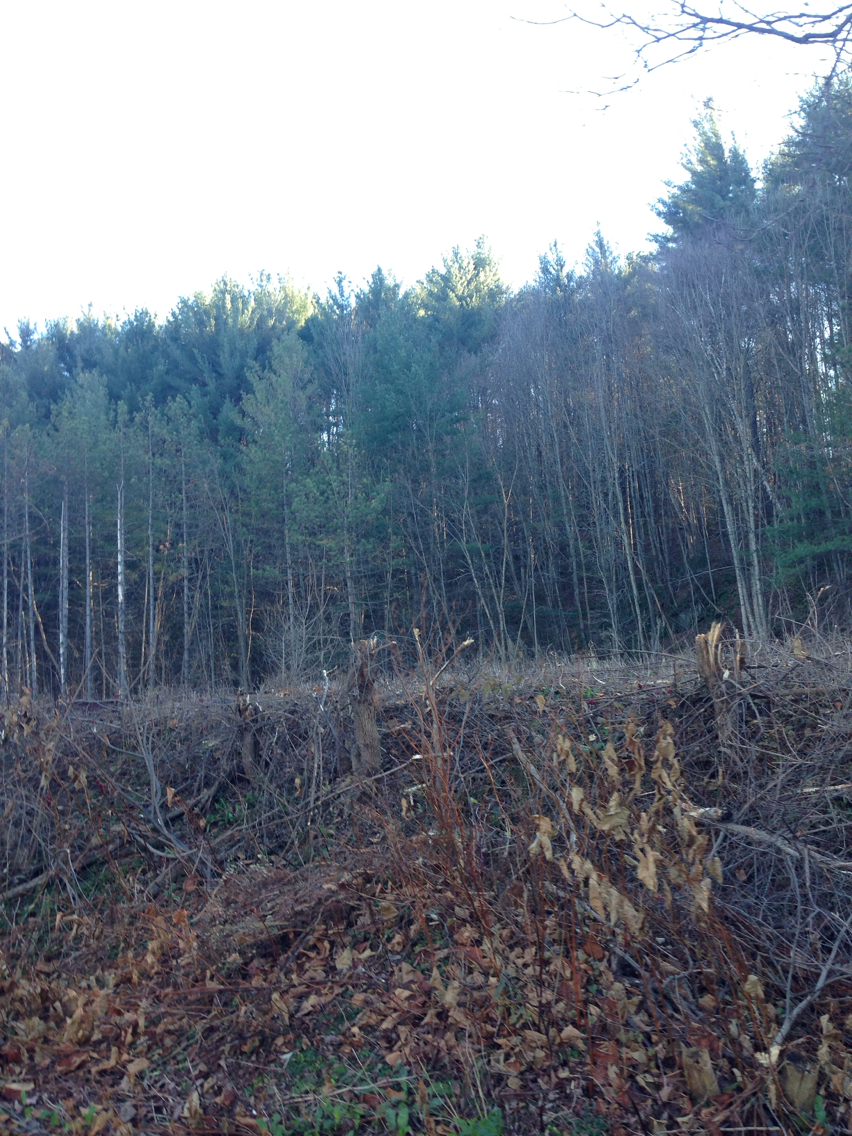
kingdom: Plantae
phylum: Tracheophyta
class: Pinopsida
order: Pinales
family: Pinaceae
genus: Pinus
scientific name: Pinus strobus
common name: Weymouth pine
